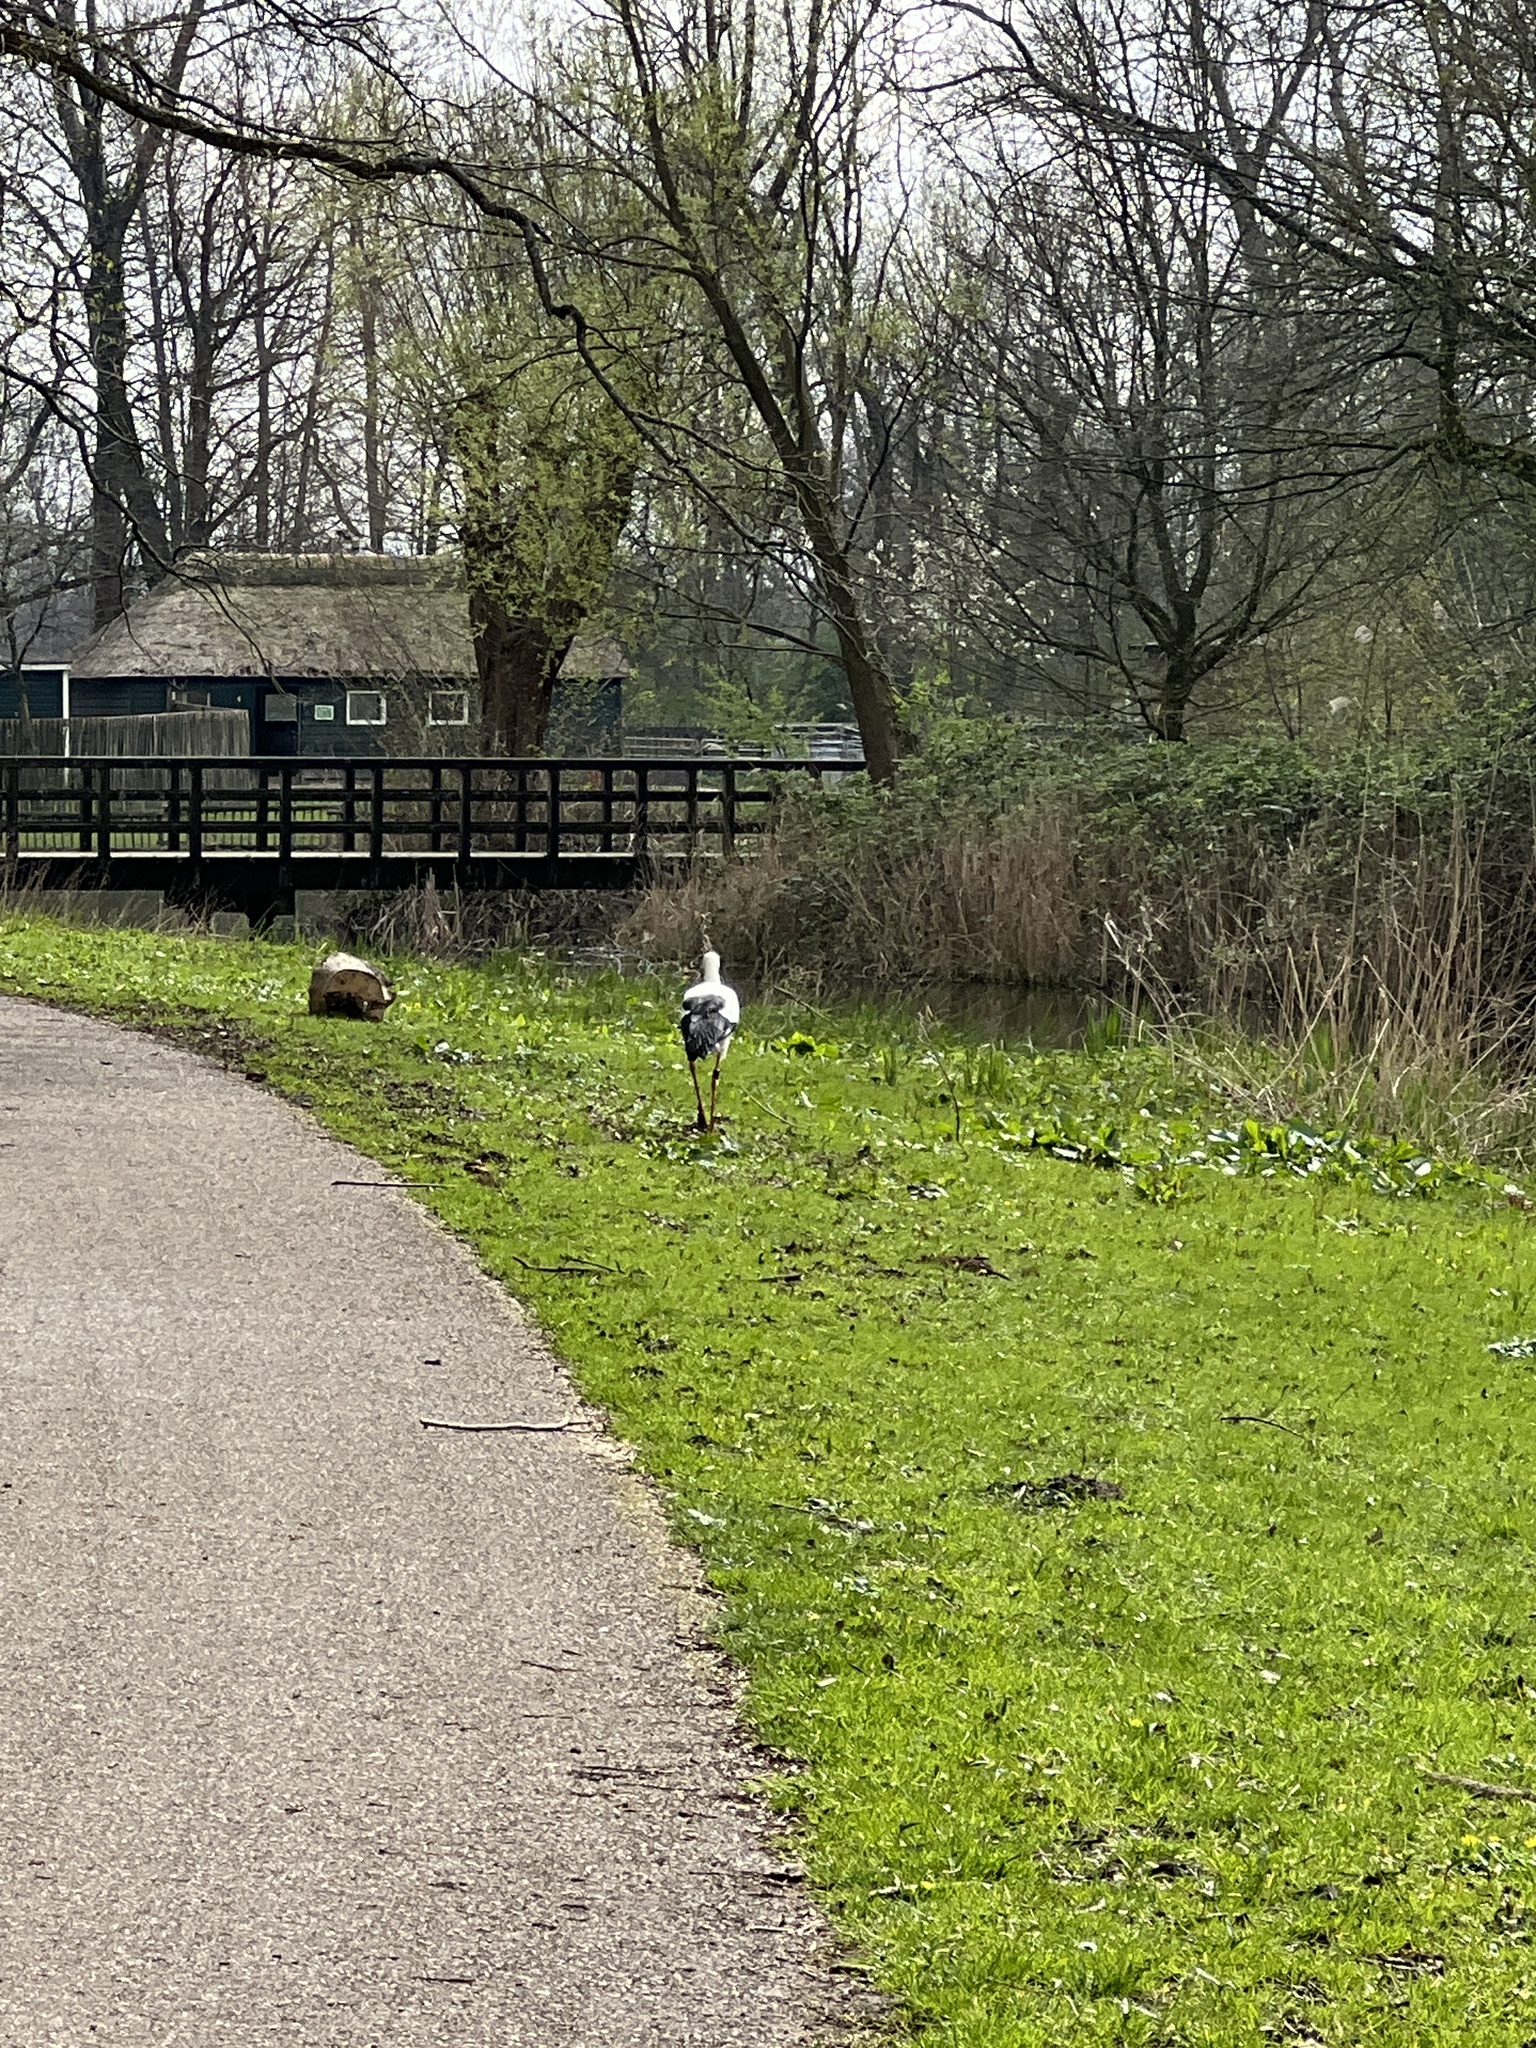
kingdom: Animalia
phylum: Chordata
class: Aves
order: Ciconiiformes
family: Ciconiidae
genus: Ciconia
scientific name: Ciconia ciconia
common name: White stork
